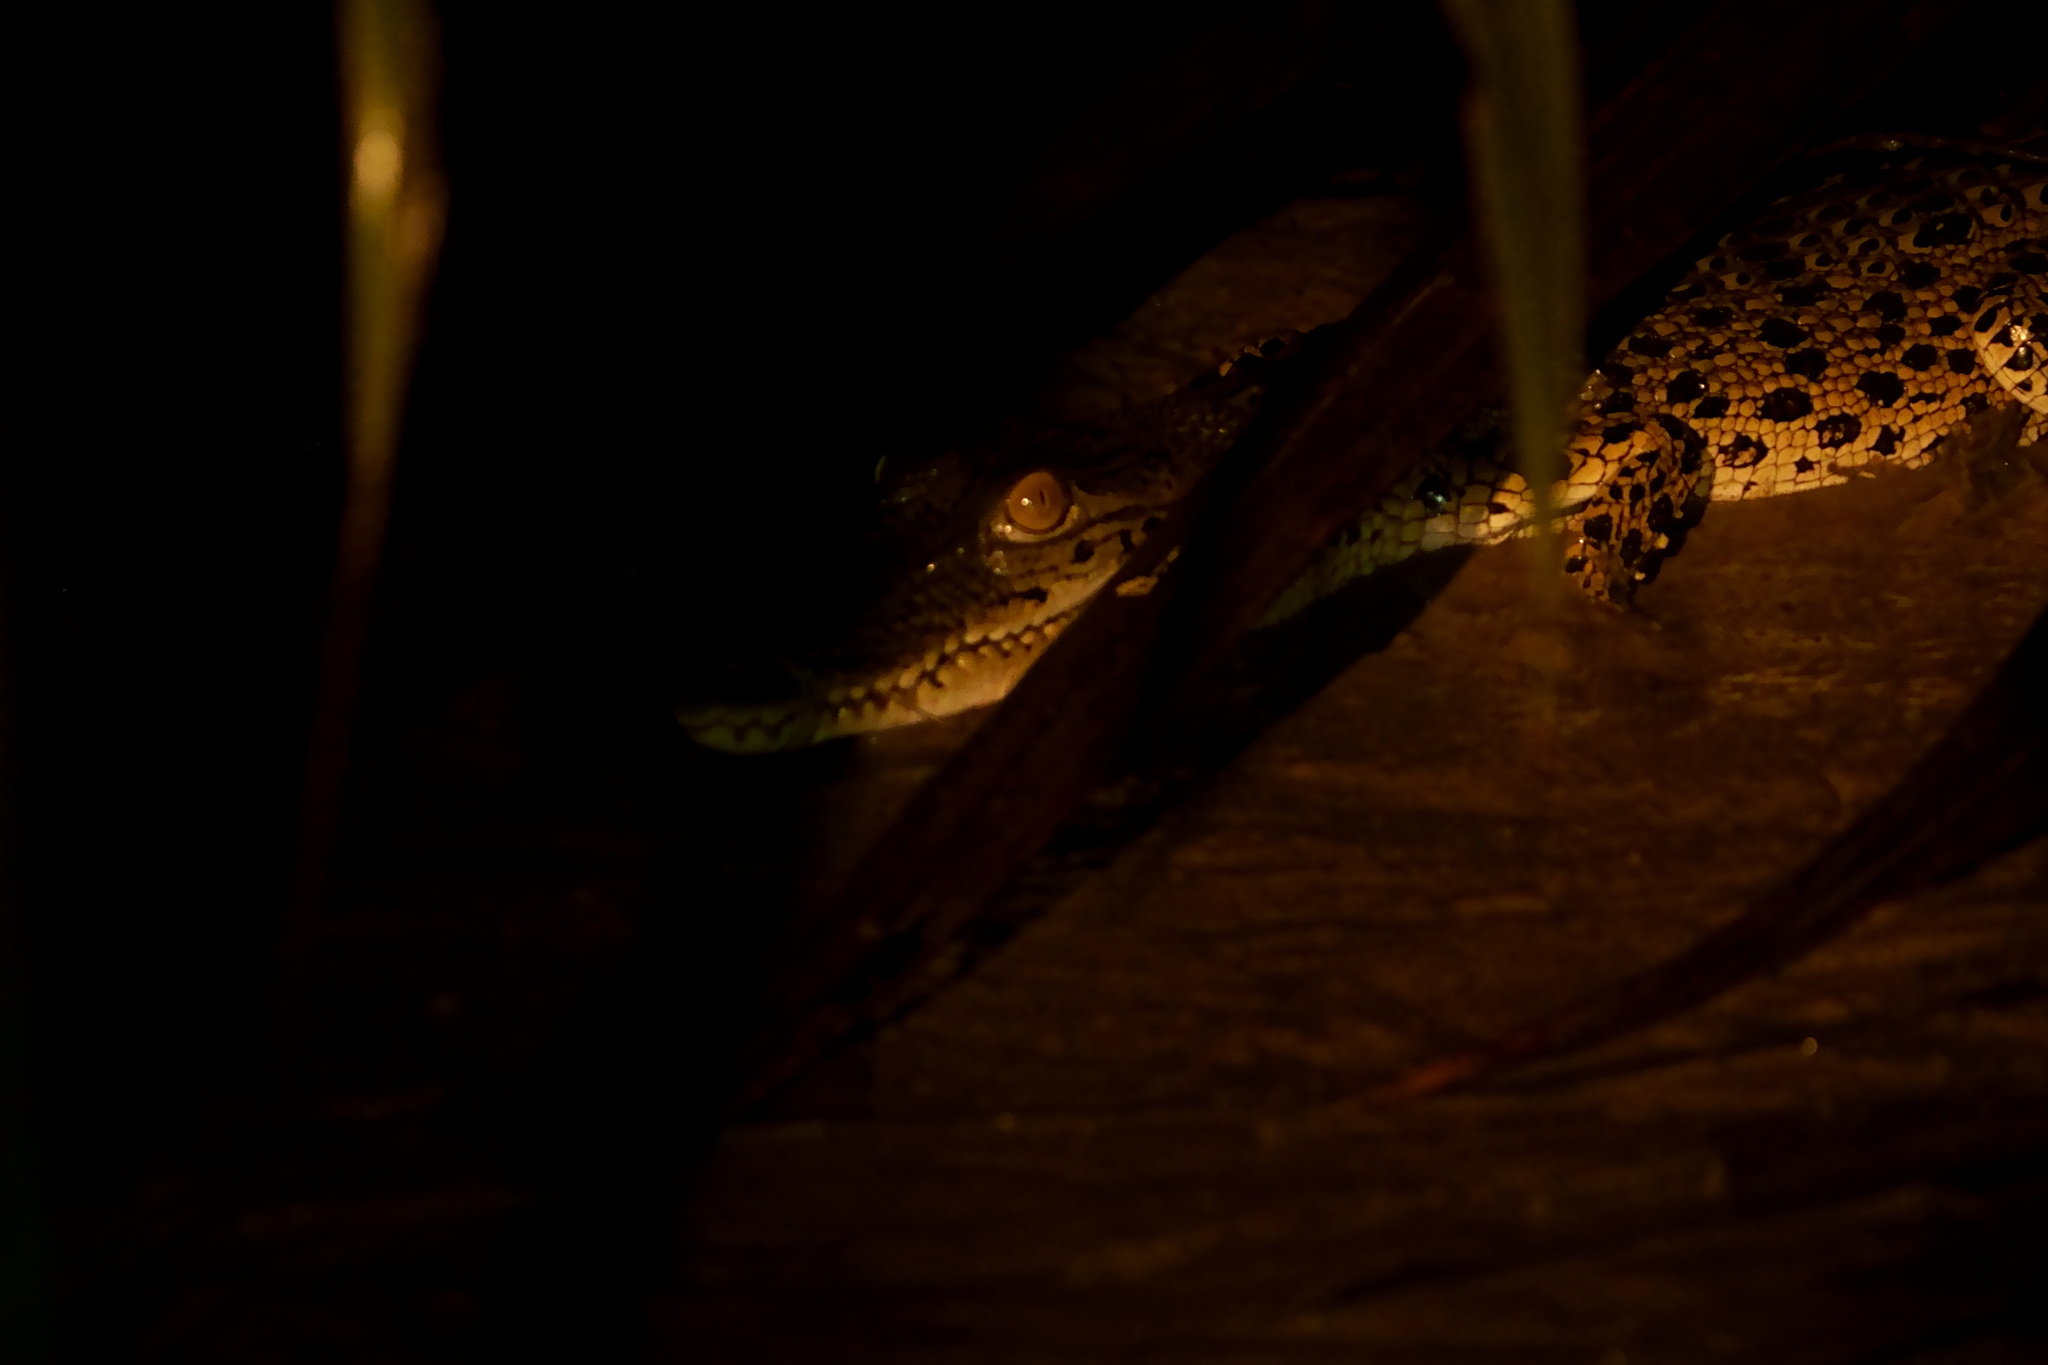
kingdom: Animalia
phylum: Chordata
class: Crocodylia
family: Crocodylidae
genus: Crocodylus
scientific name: Crocodylus porosus
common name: Saltwater crocodile
